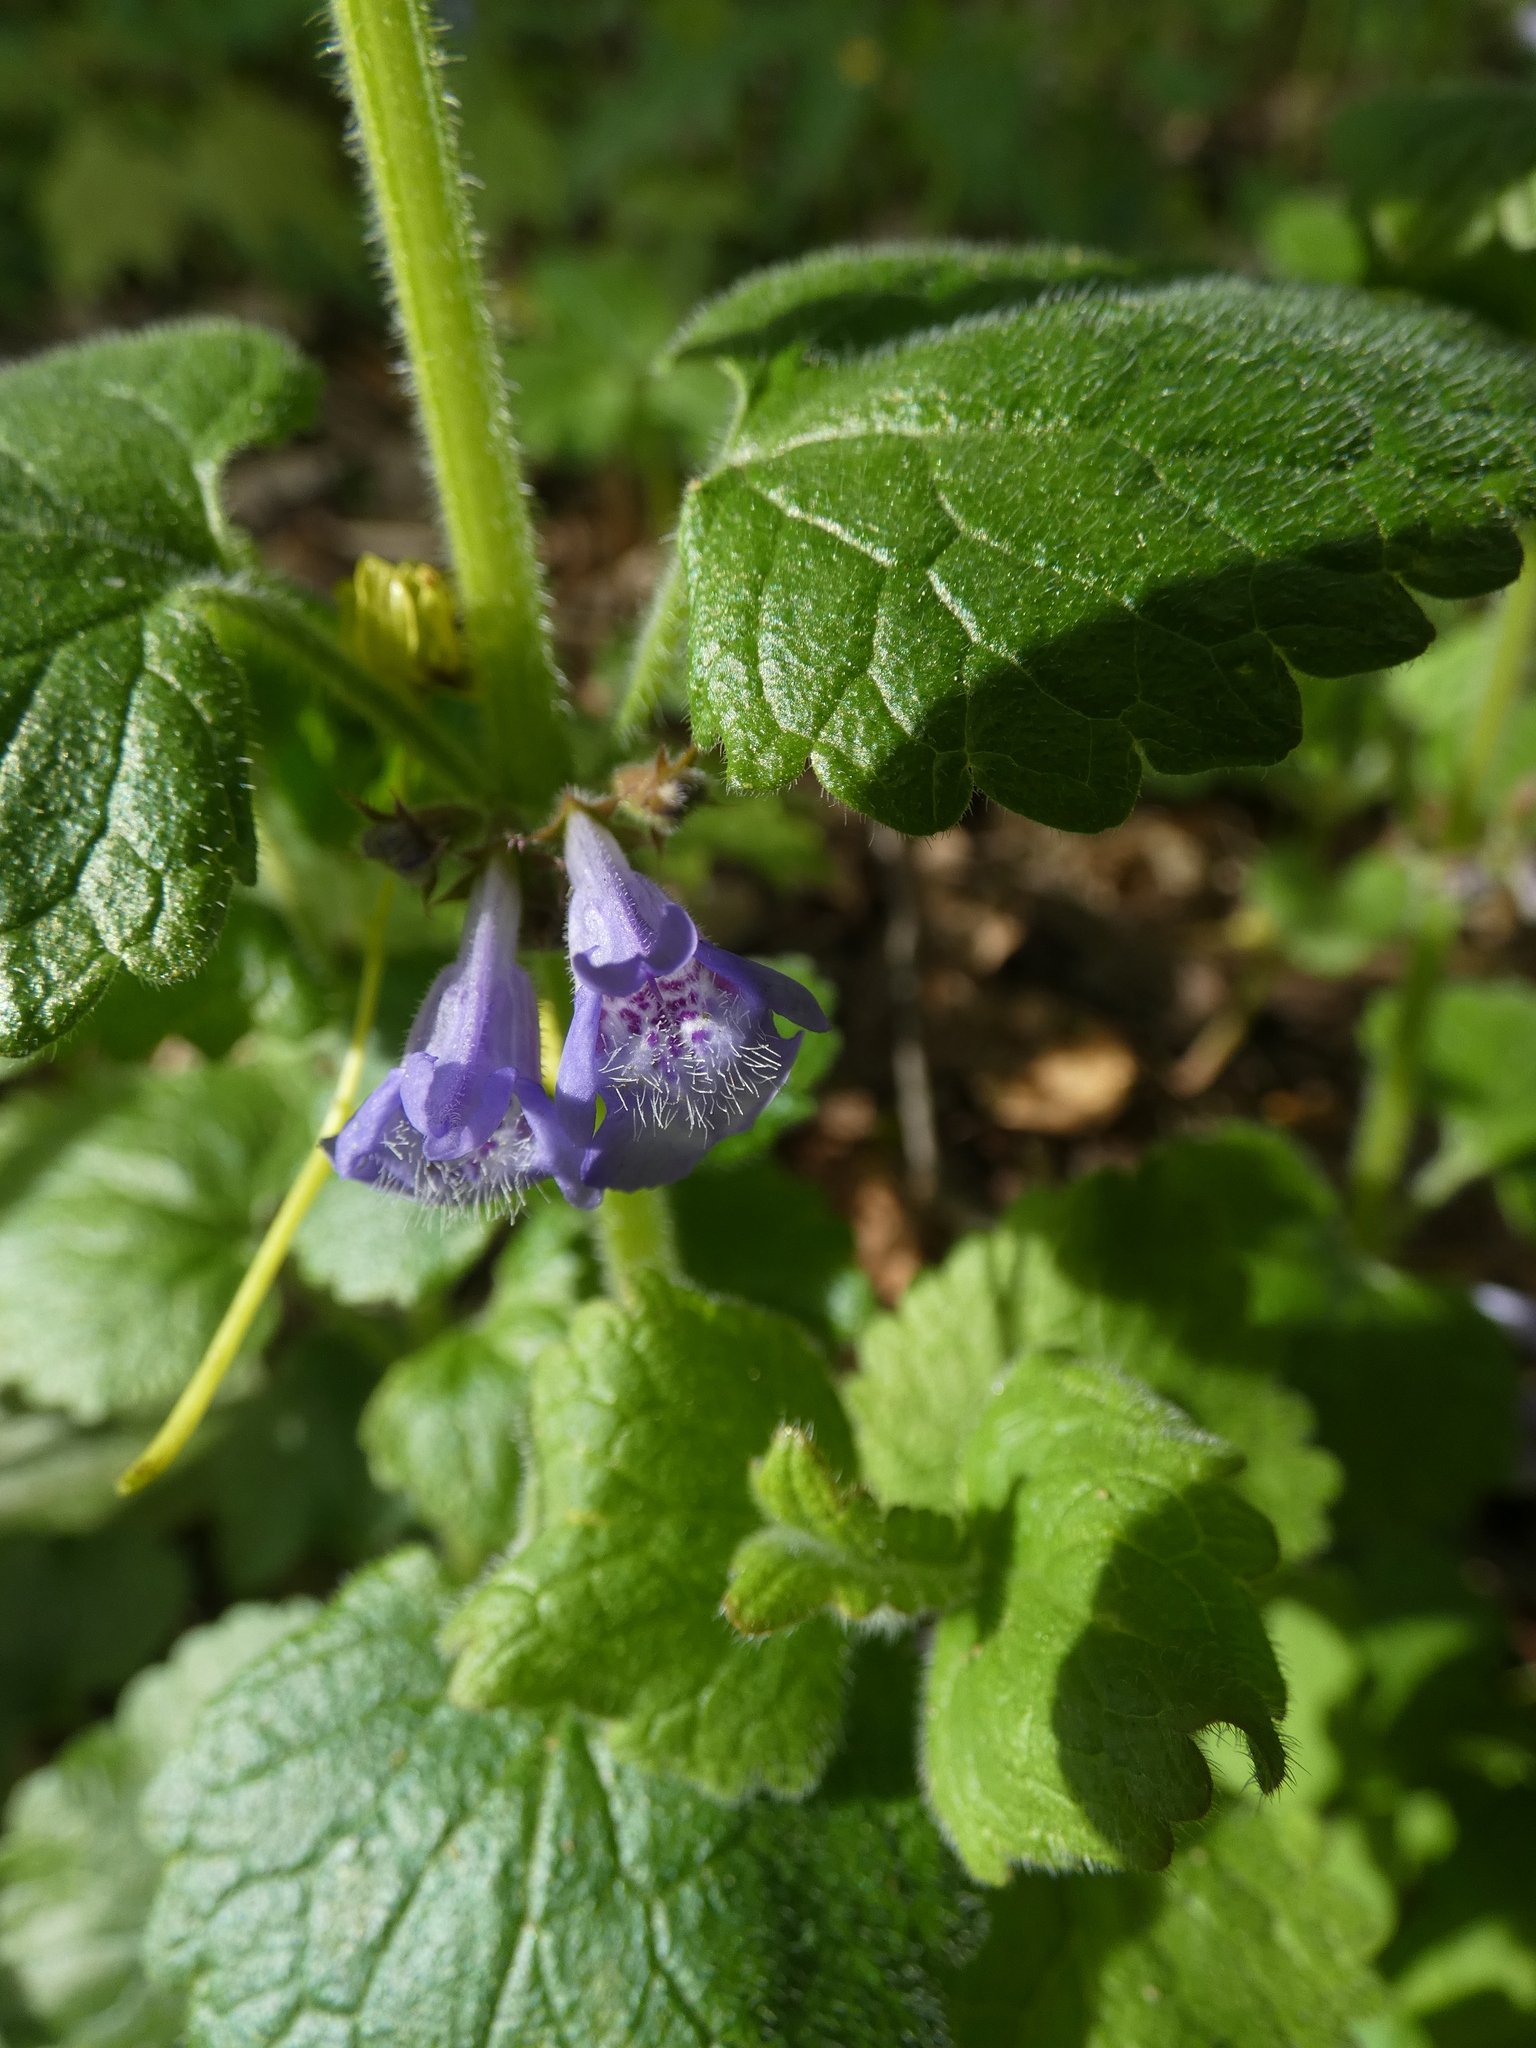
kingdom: Plantae
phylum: Tracheophyta
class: Magnoliopsida
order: Lamiales
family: Lamiaceae
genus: Glechoma
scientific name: Glechoma hederacea
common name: Ground ivy
